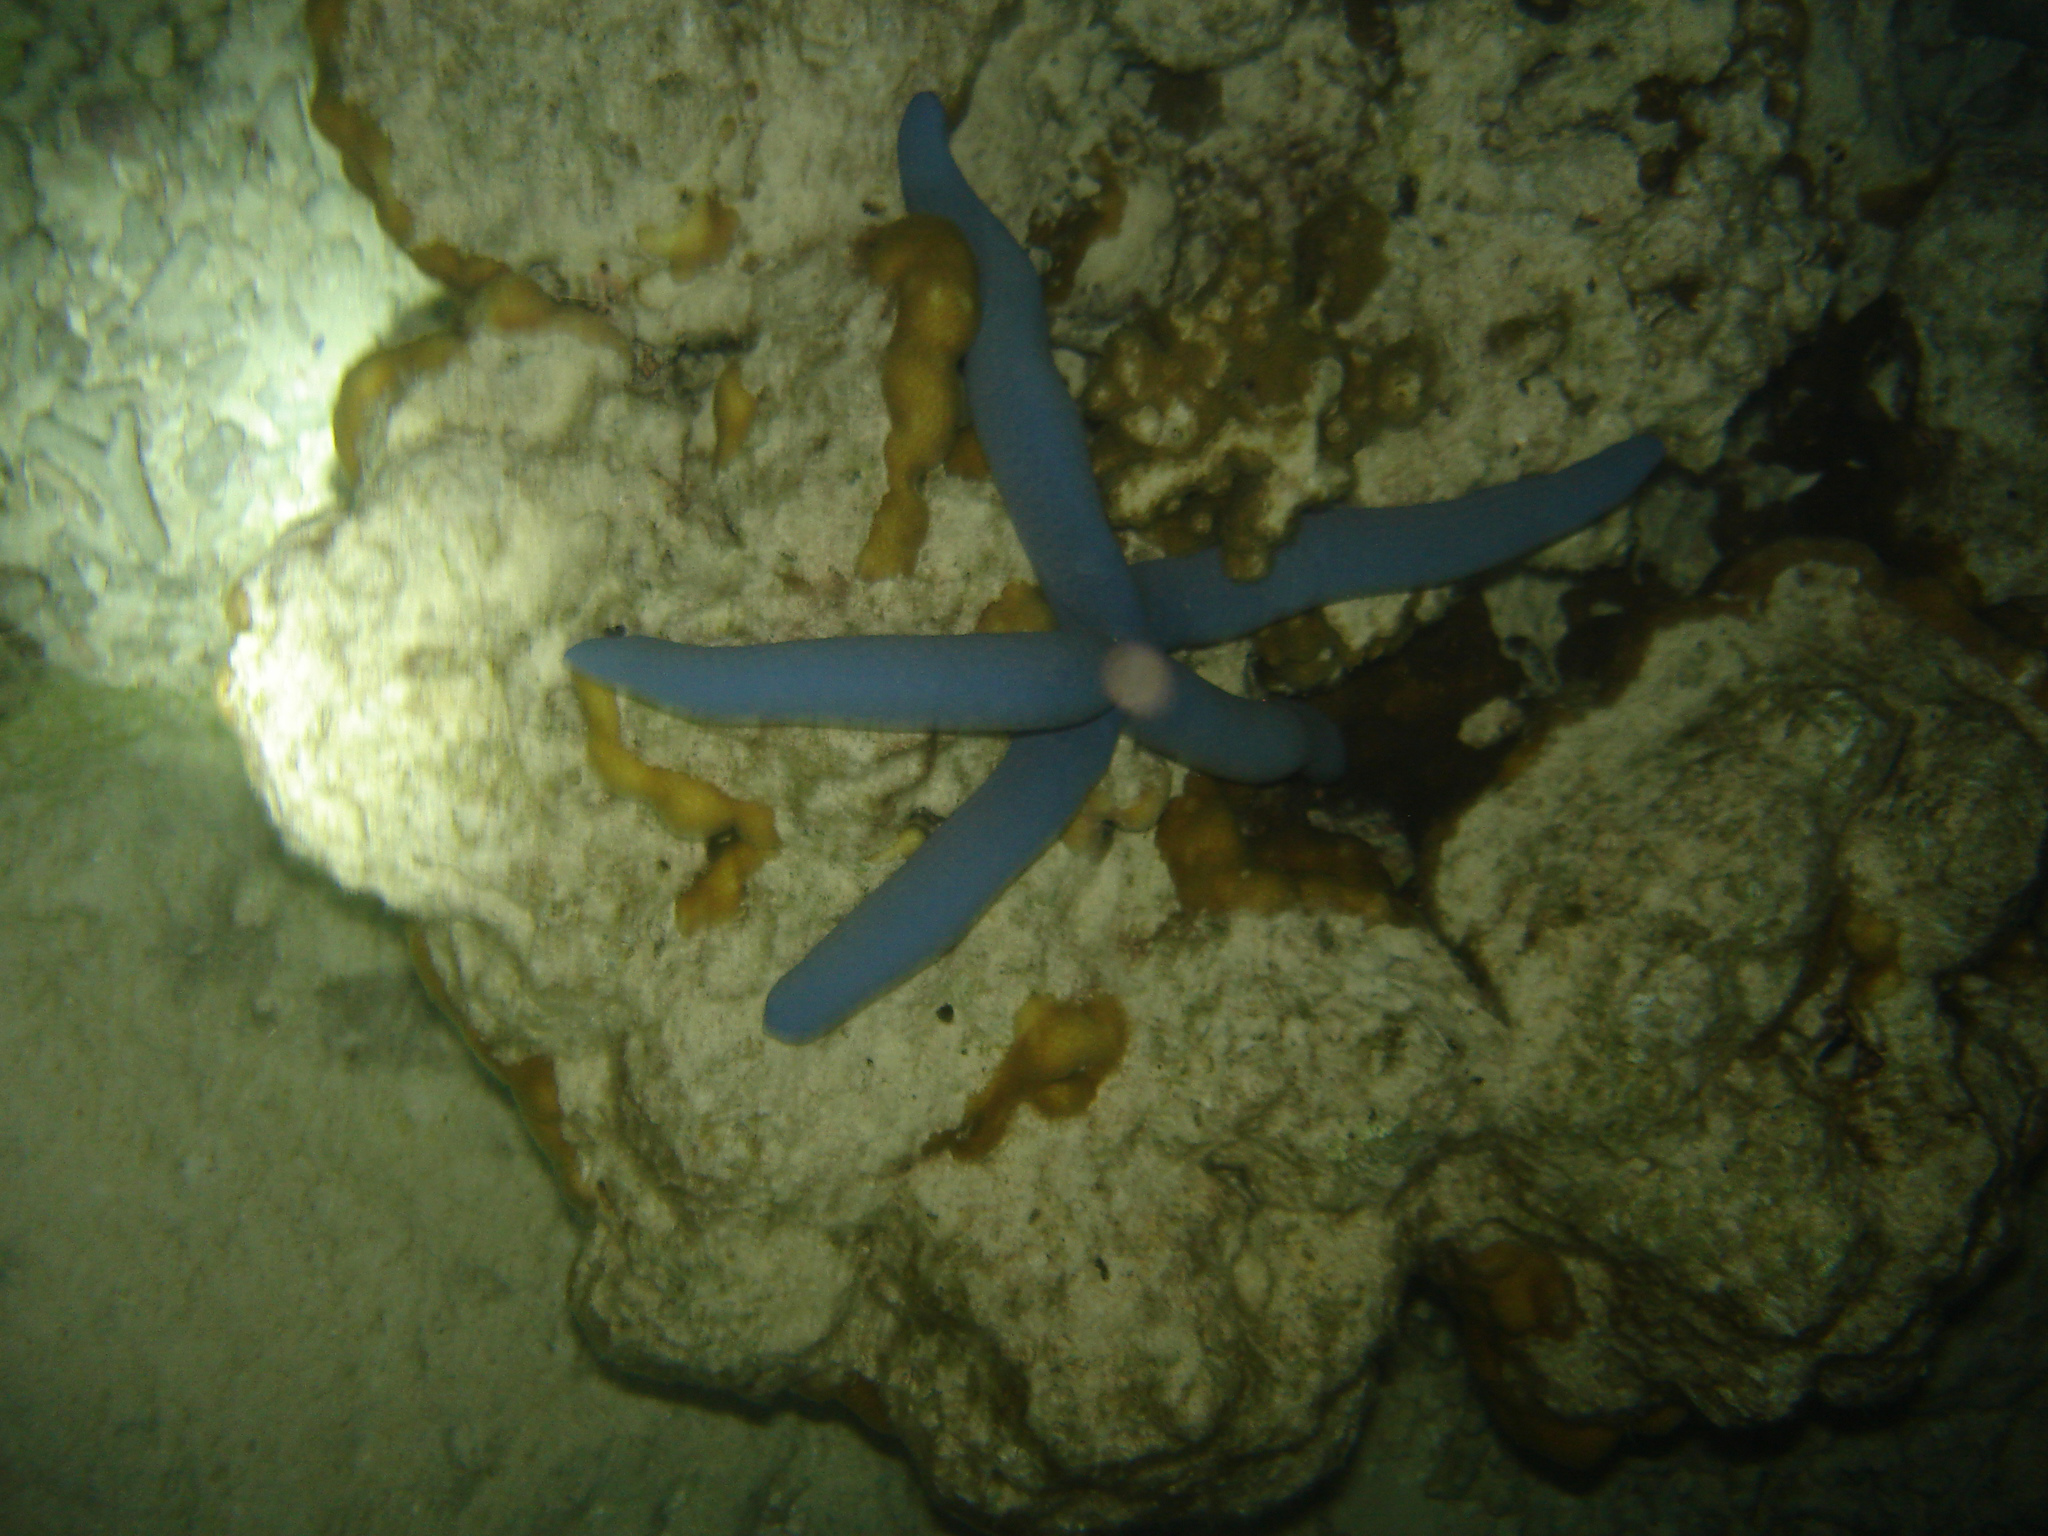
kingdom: Animalia
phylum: Echinodermata
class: Asteroidea
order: Valvatida
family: Ophidiasteridae
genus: Linckia
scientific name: Linckia laevigata
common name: Azure sea star
